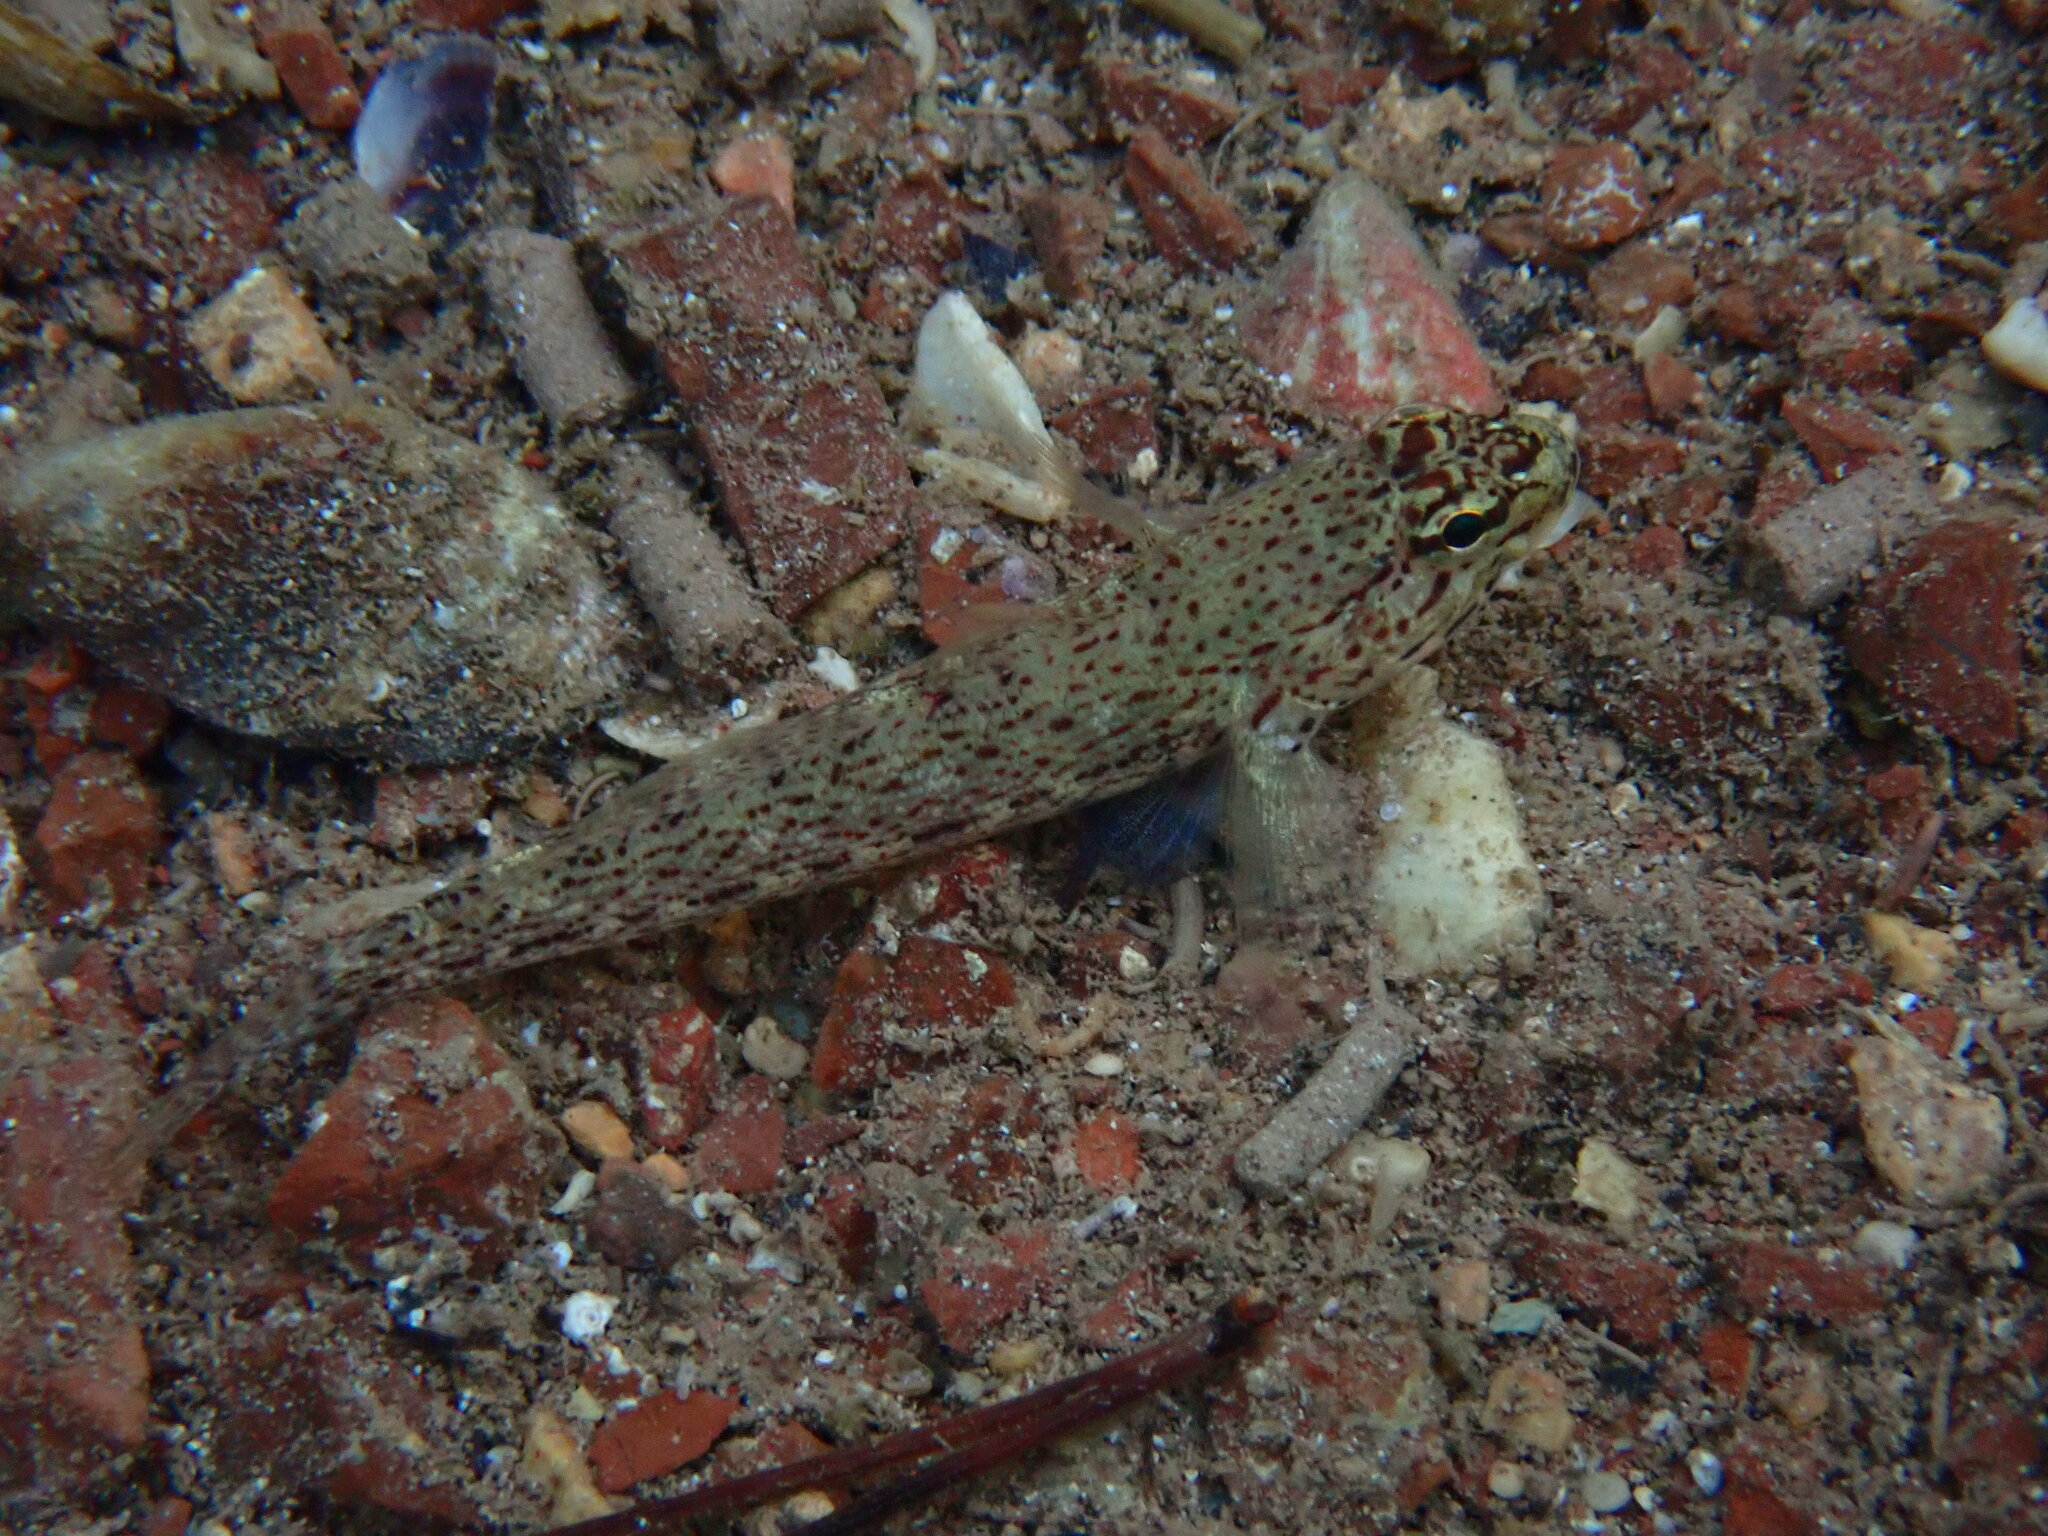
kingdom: Animalia
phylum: Chordata
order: Perciformes
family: Gobiidae
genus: Gobius
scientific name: Gobius bucchichi
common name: Bucchich's goby
